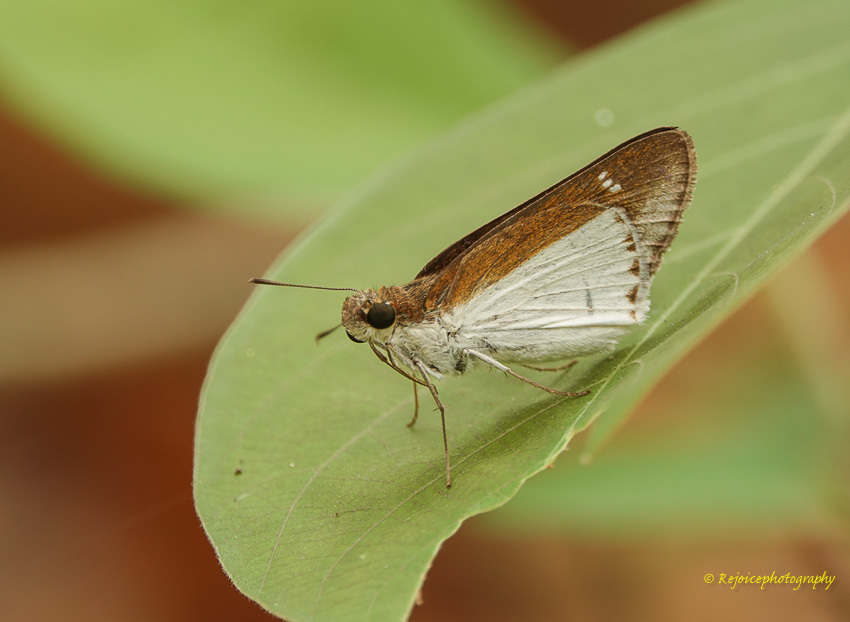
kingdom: Animalia
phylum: Arthropoda
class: Insecta
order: Lepidoptera
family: Hesperiidae
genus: Iton
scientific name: Iton semamora
